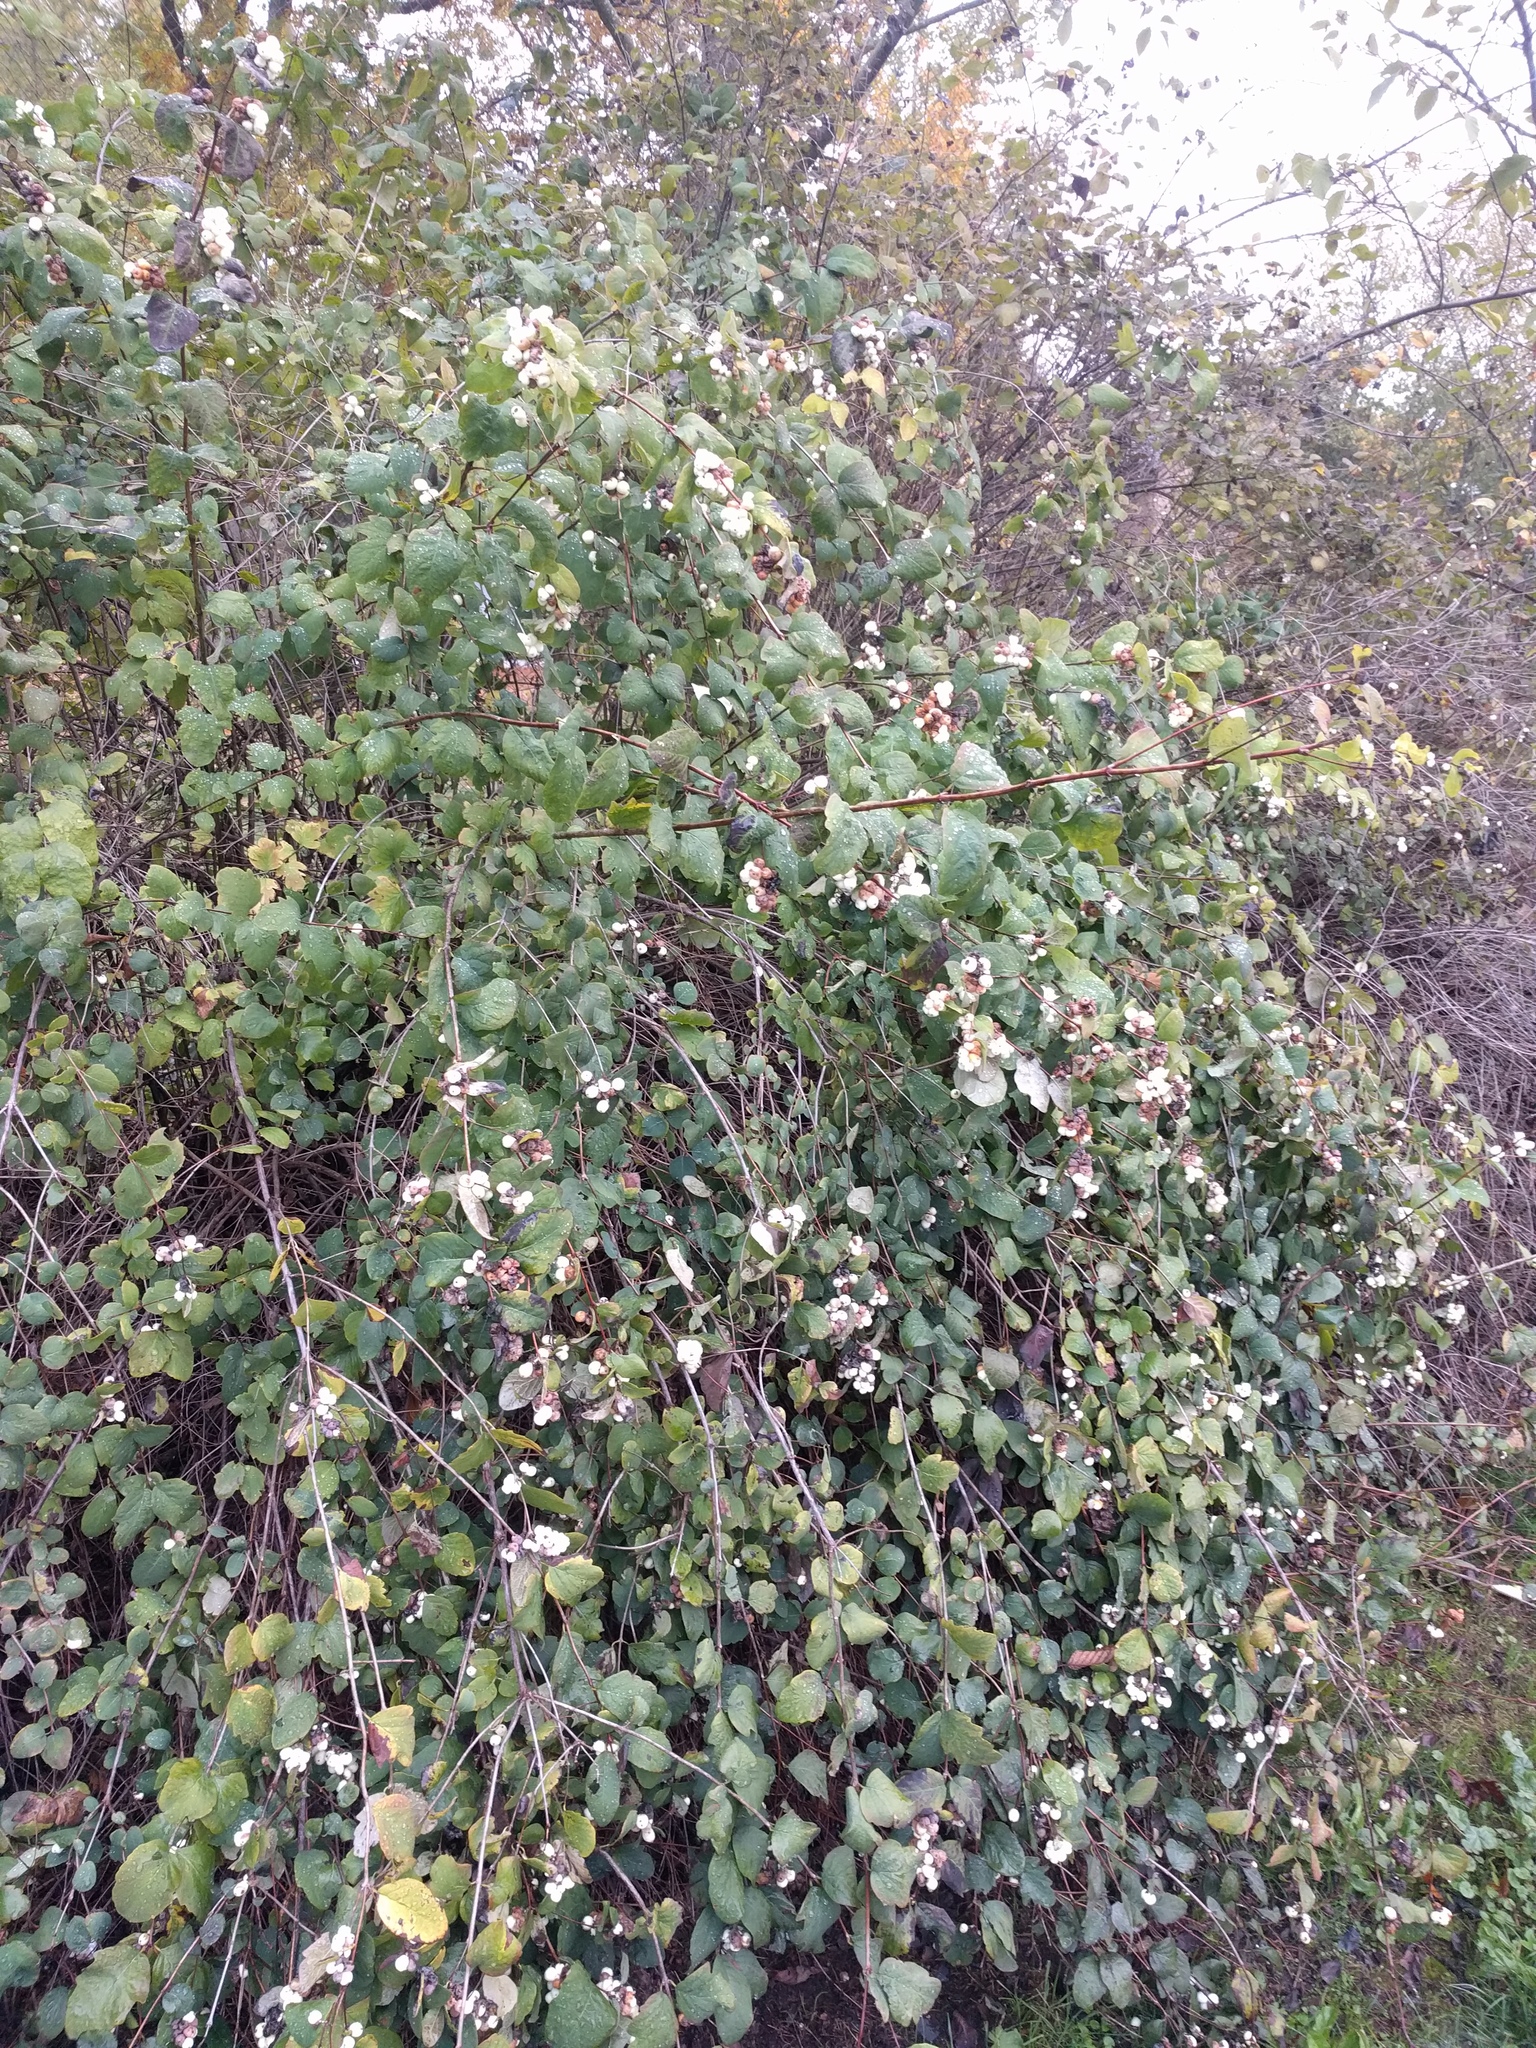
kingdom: Plantae
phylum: Tracheophyta
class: Magnoliopsida
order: Dipsacales
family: Caprifoliaceae
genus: Symphoricarpos
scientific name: Symphoricarpos albus
